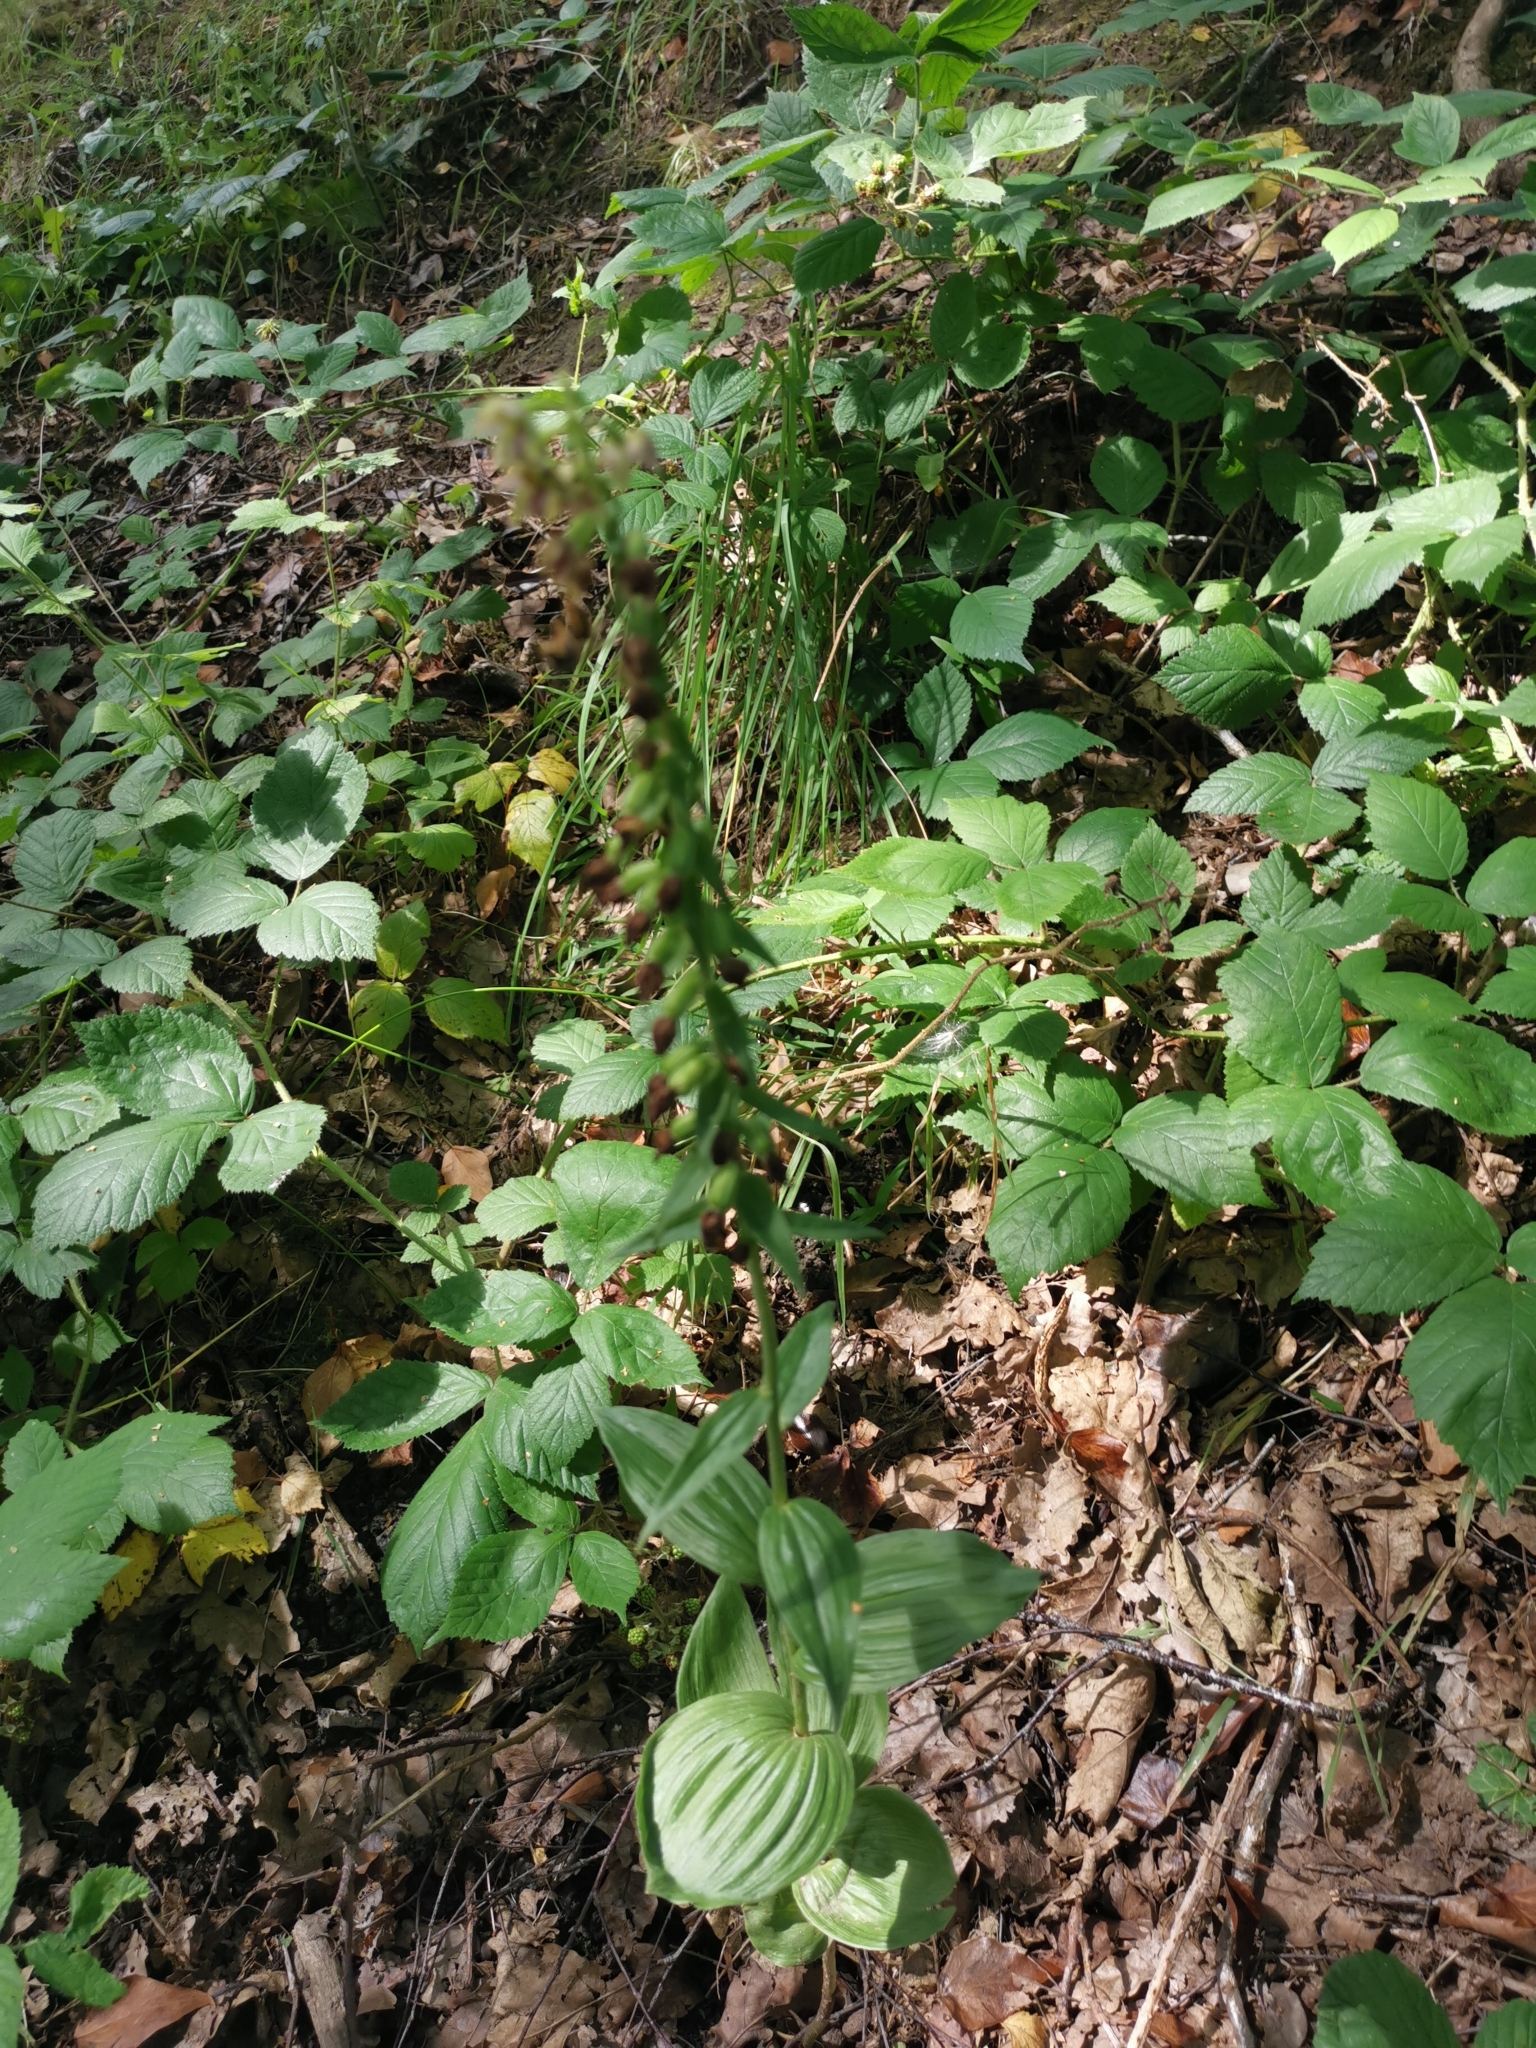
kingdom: Plantae
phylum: Tracheophyta
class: Liliopsida
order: Asparagales
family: Orchidaceae
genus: Epipactis
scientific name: Epipactis helleborine
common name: Broad-leaved helleborine
